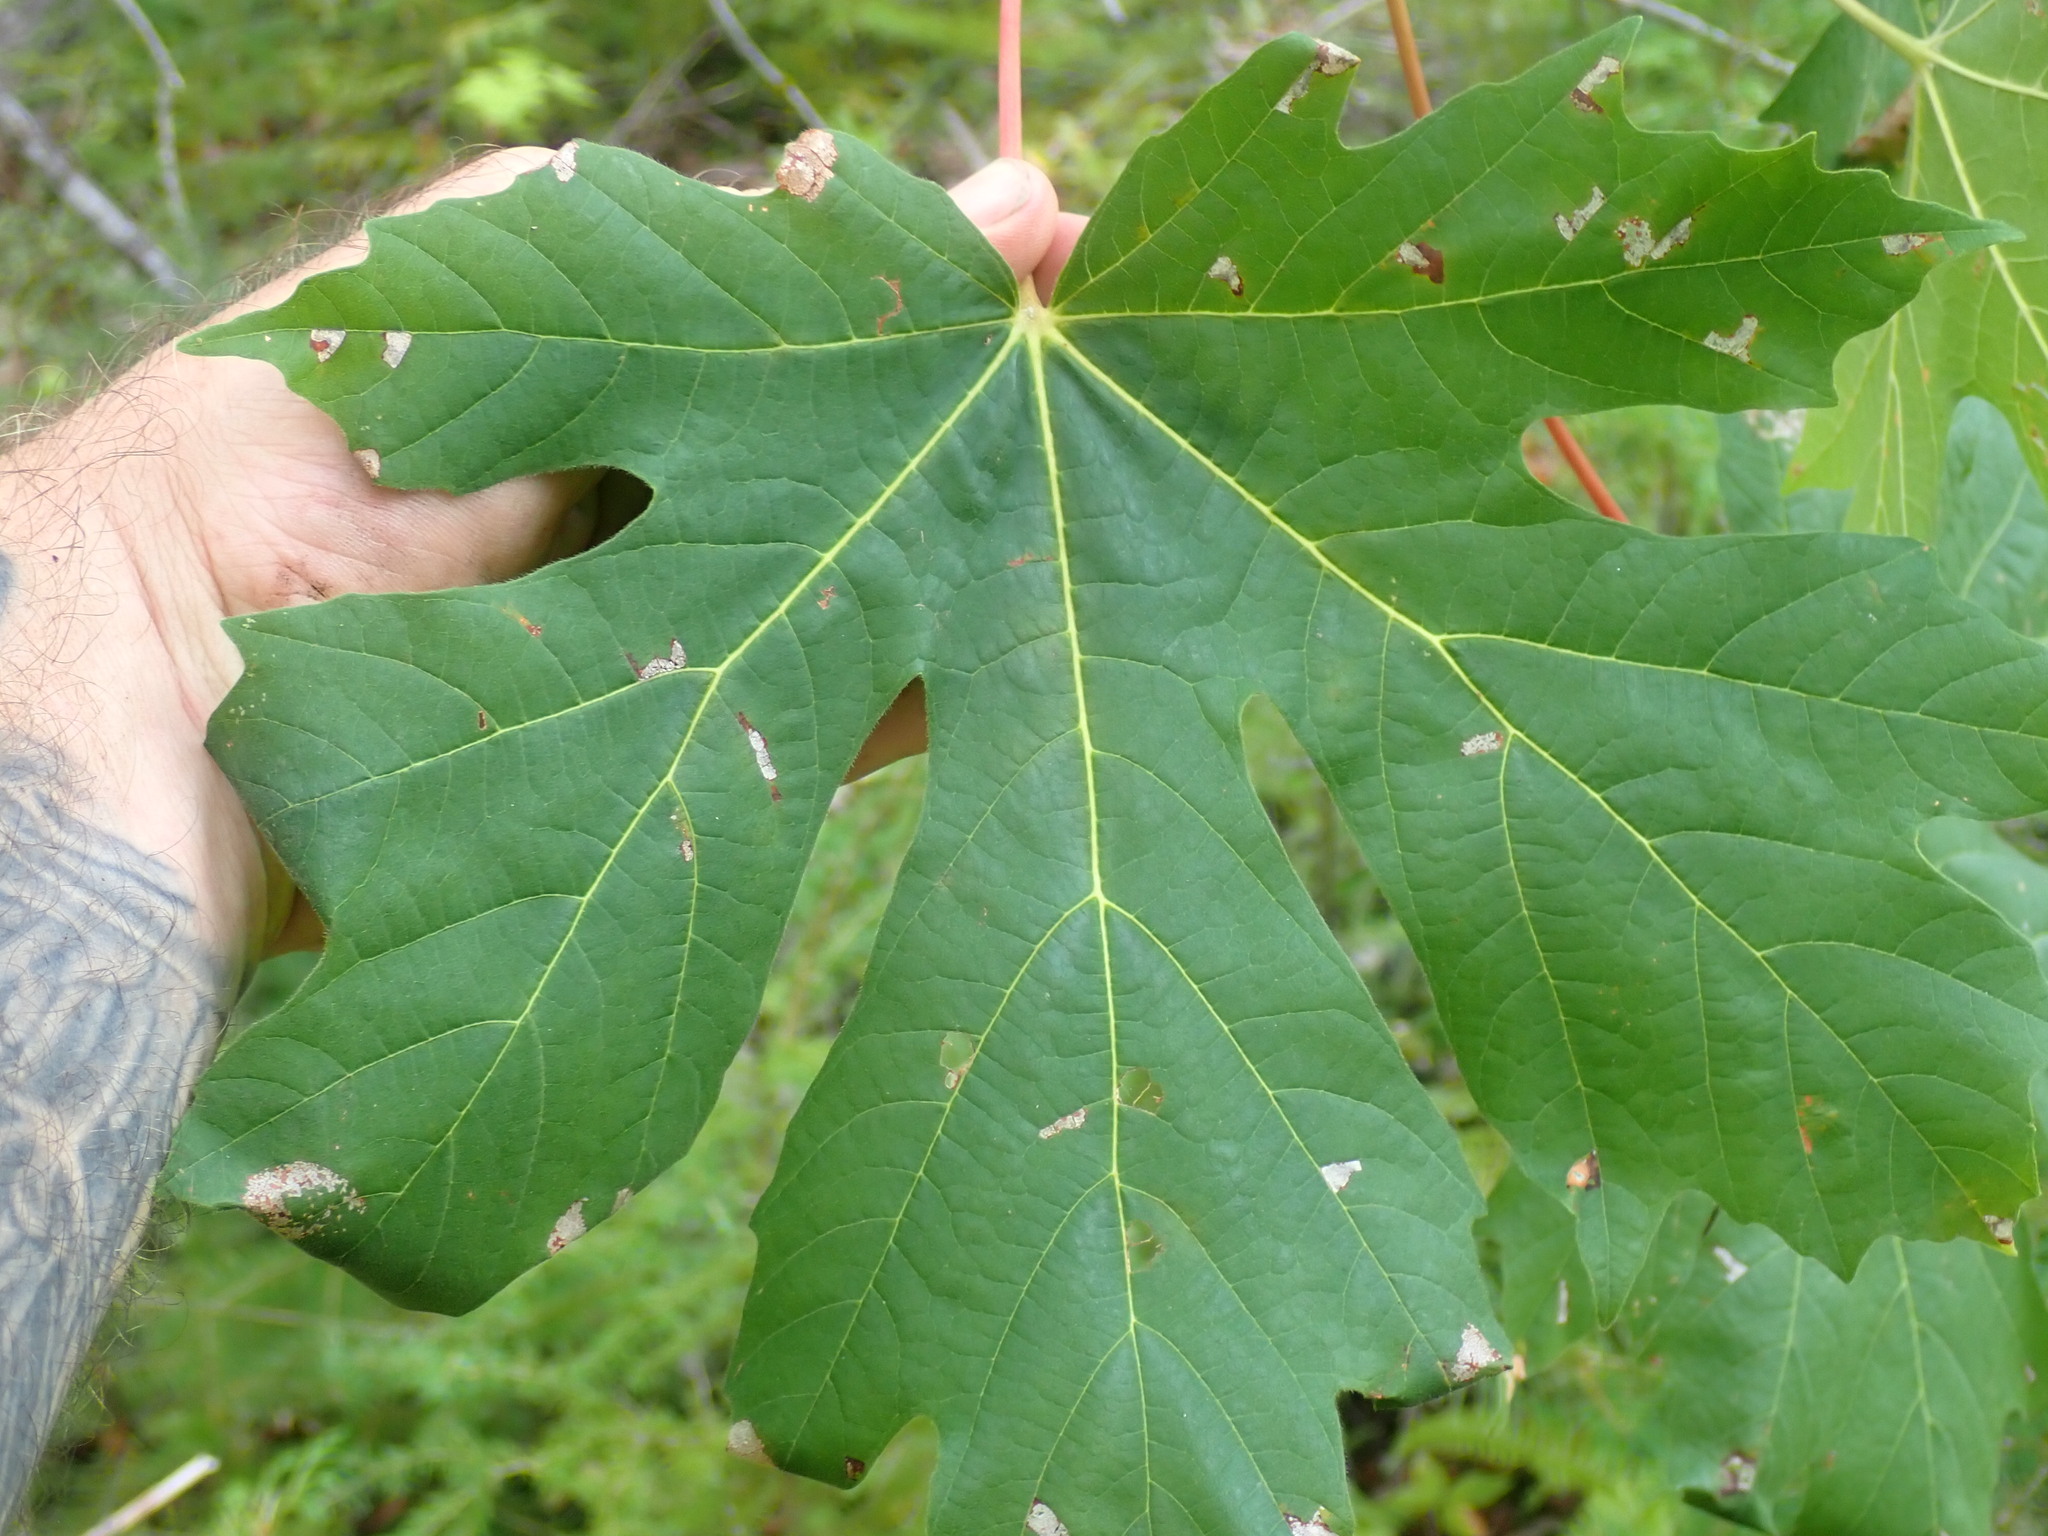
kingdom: Plantae
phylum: Tracheophyta
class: Magnoliopsida
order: Sapindales
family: Sapindaceae
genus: Acer
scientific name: Acer macrophyllum
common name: Oregon maple
